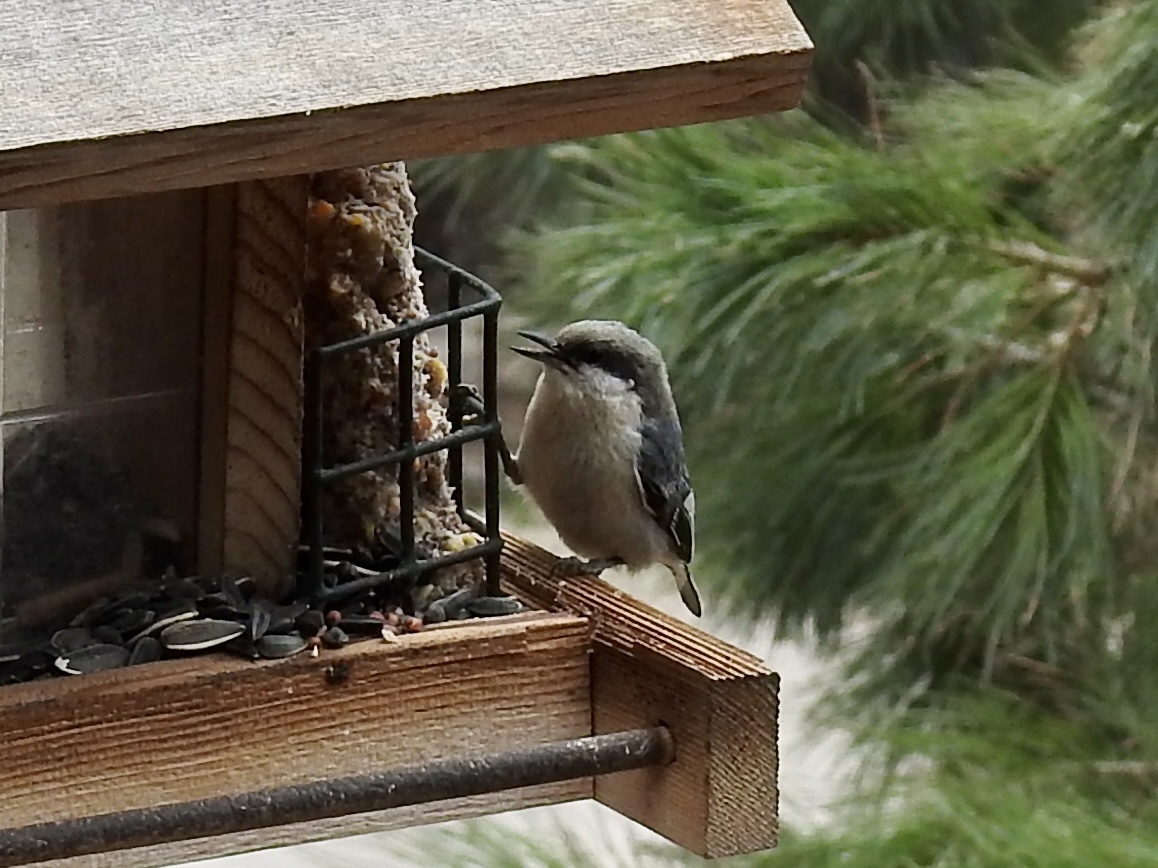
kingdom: Animalia
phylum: Chordata
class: Aves
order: Passeriformes
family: Sittidae
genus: Sitta
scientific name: Sitta pygmaea
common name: Pygmy nuthatch
